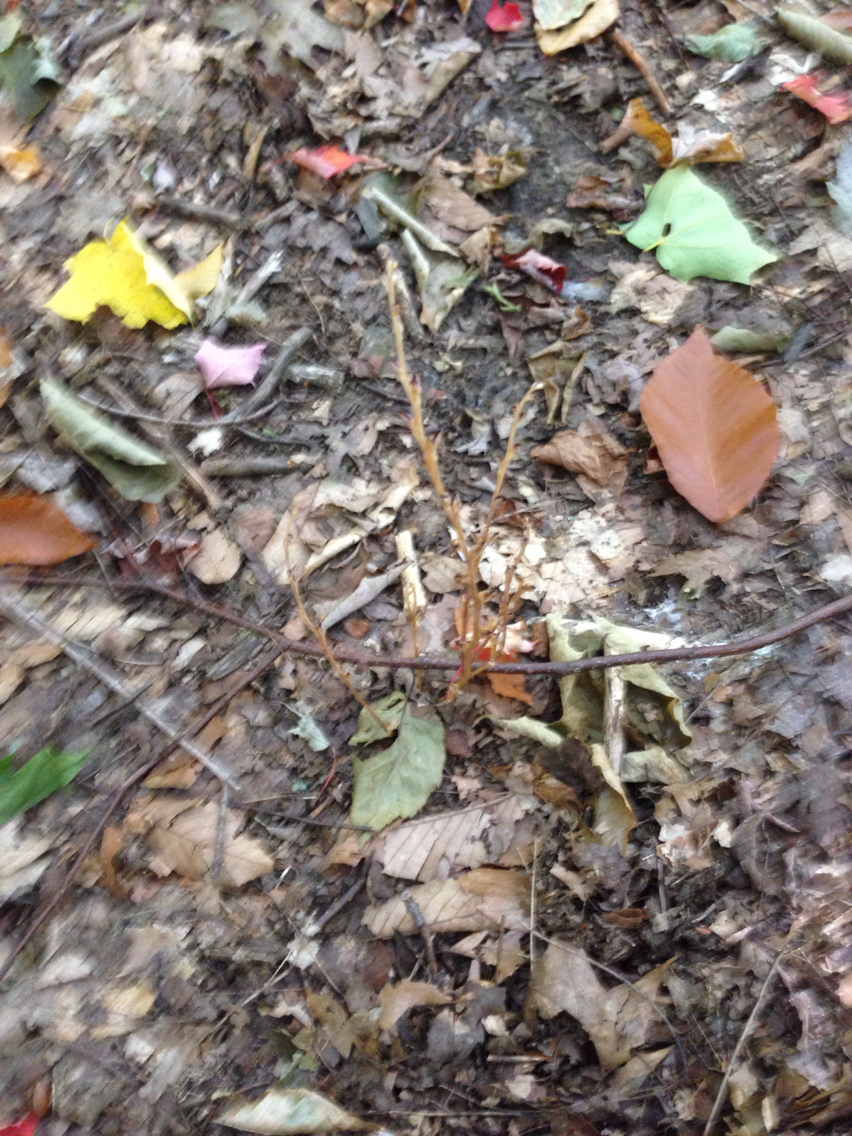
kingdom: Plantae
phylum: Tracheophyta
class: Magnoliopsida
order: Lamiales
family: Orobanchaceae
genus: Epifagus
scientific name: Epifagus virginiana
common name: Beechdrops
